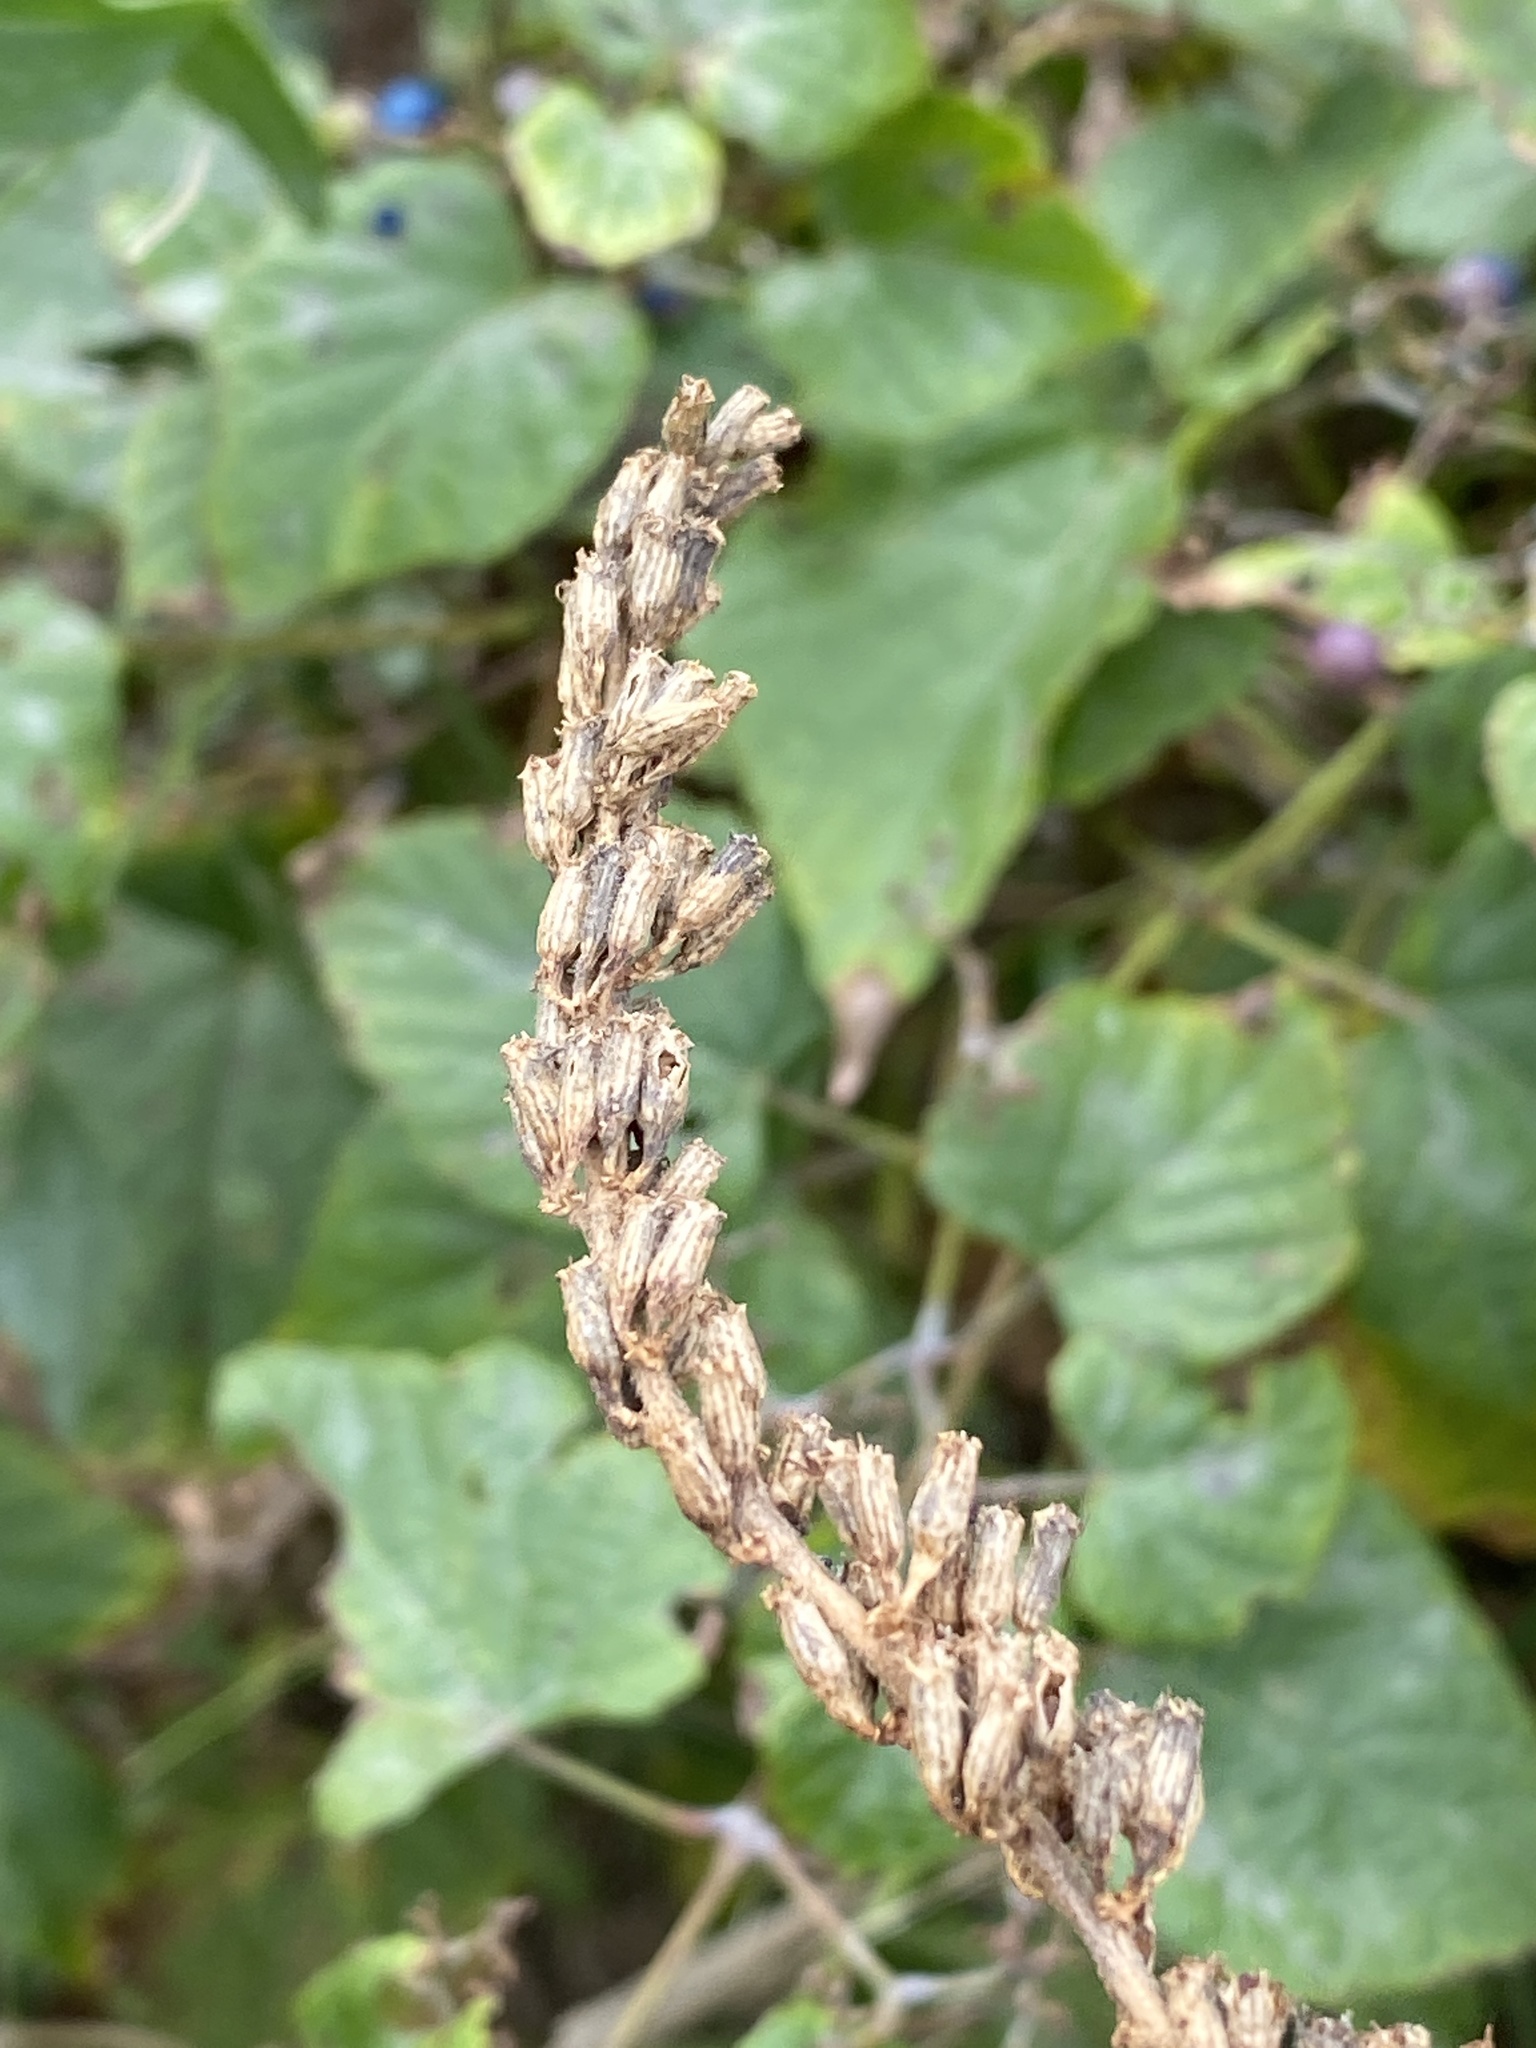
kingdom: Plantae
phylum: Tracheophyta
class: Magnoliopsida
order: Myrtales
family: Lythraceae
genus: Lythrum
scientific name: Lythrum salicaria
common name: Purple loosestrife
